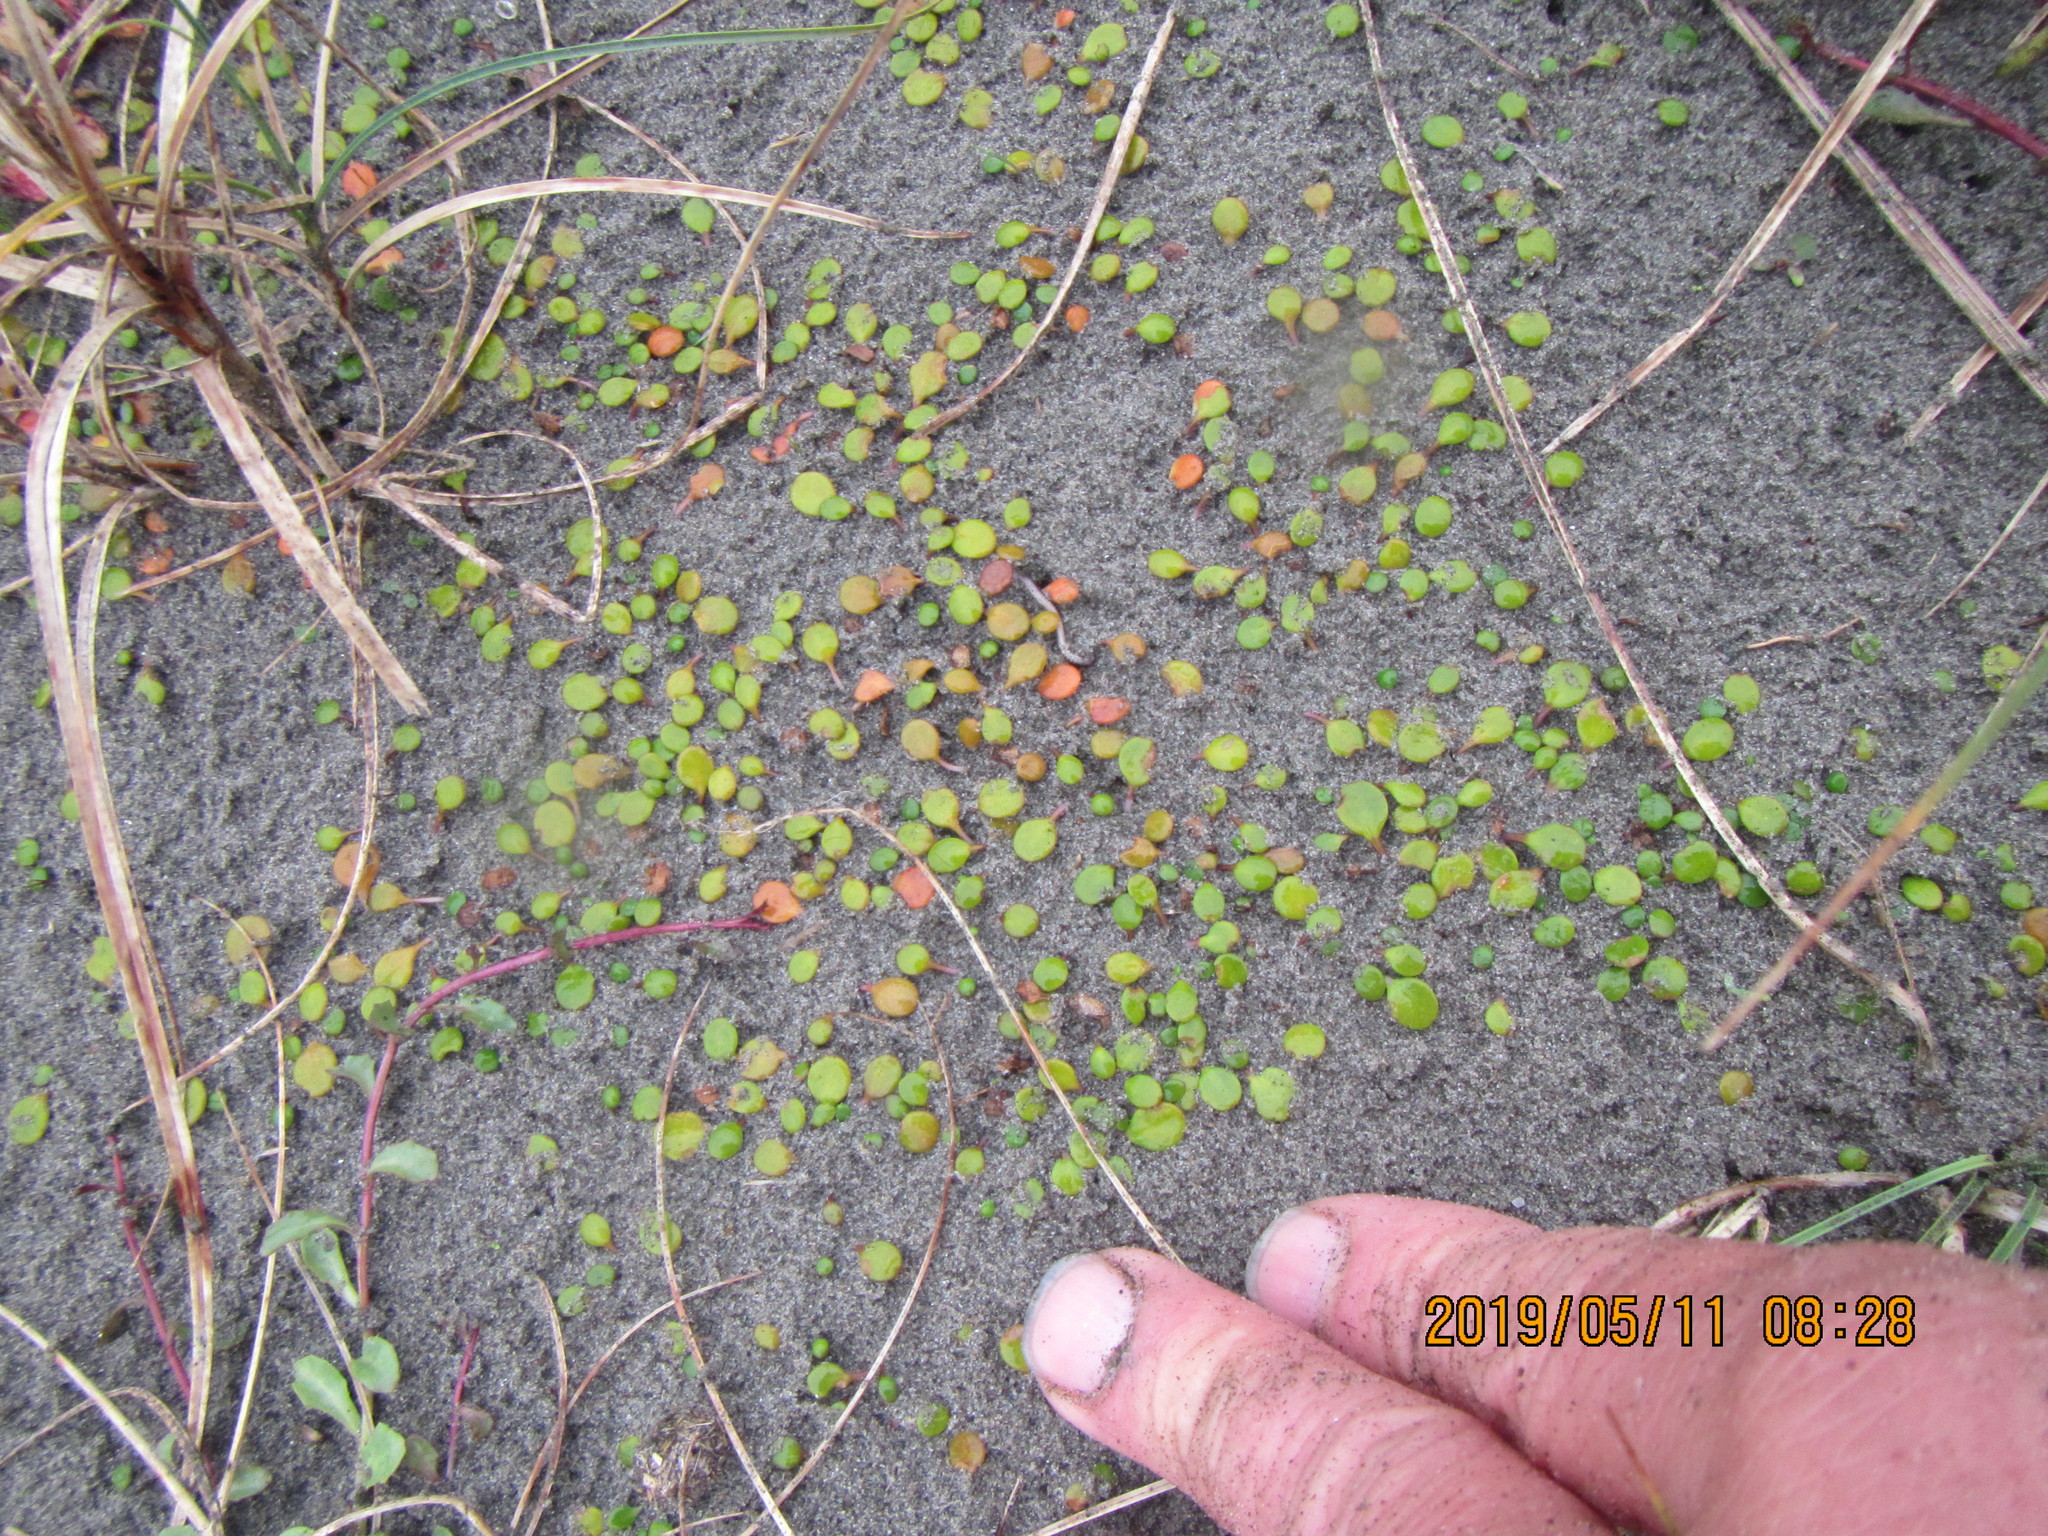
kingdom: Plantae
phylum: Tracheophyta
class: Magnoliopsida
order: Asterales
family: Goodeniaceae
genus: Goodenia
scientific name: Goodenia heenanii
